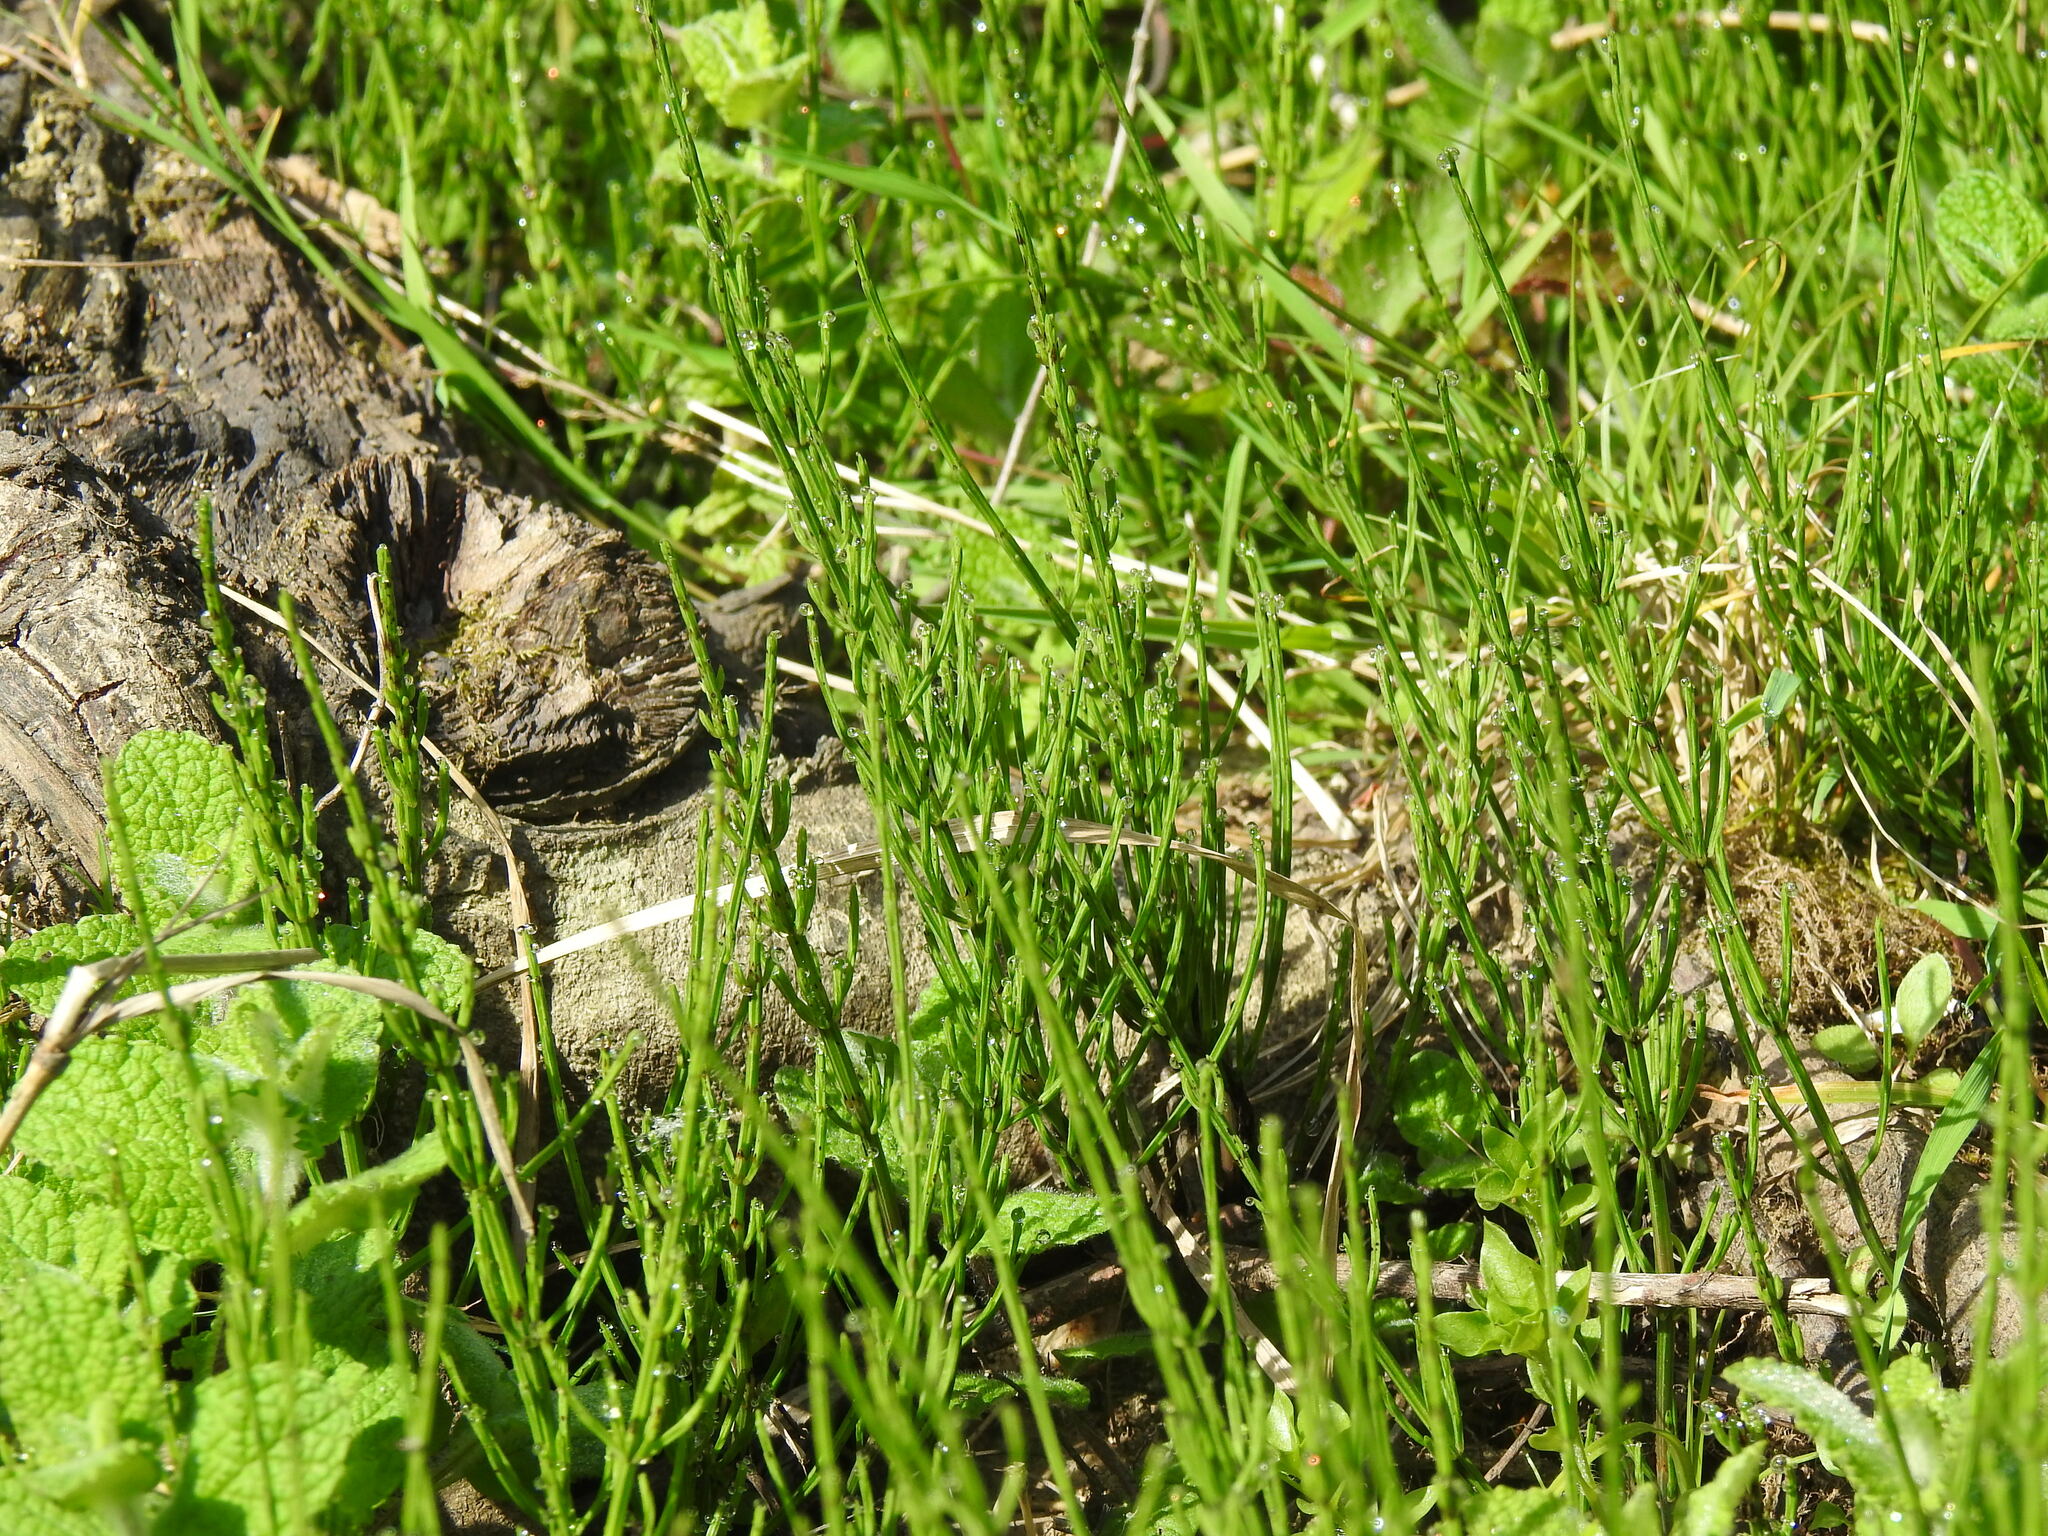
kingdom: Plantae
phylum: Tracheophyta
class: Polypodiopsida
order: Equisetales
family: Equisetaceae
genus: Equisetum
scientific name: Equisetum arvense
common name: Field horsetail
